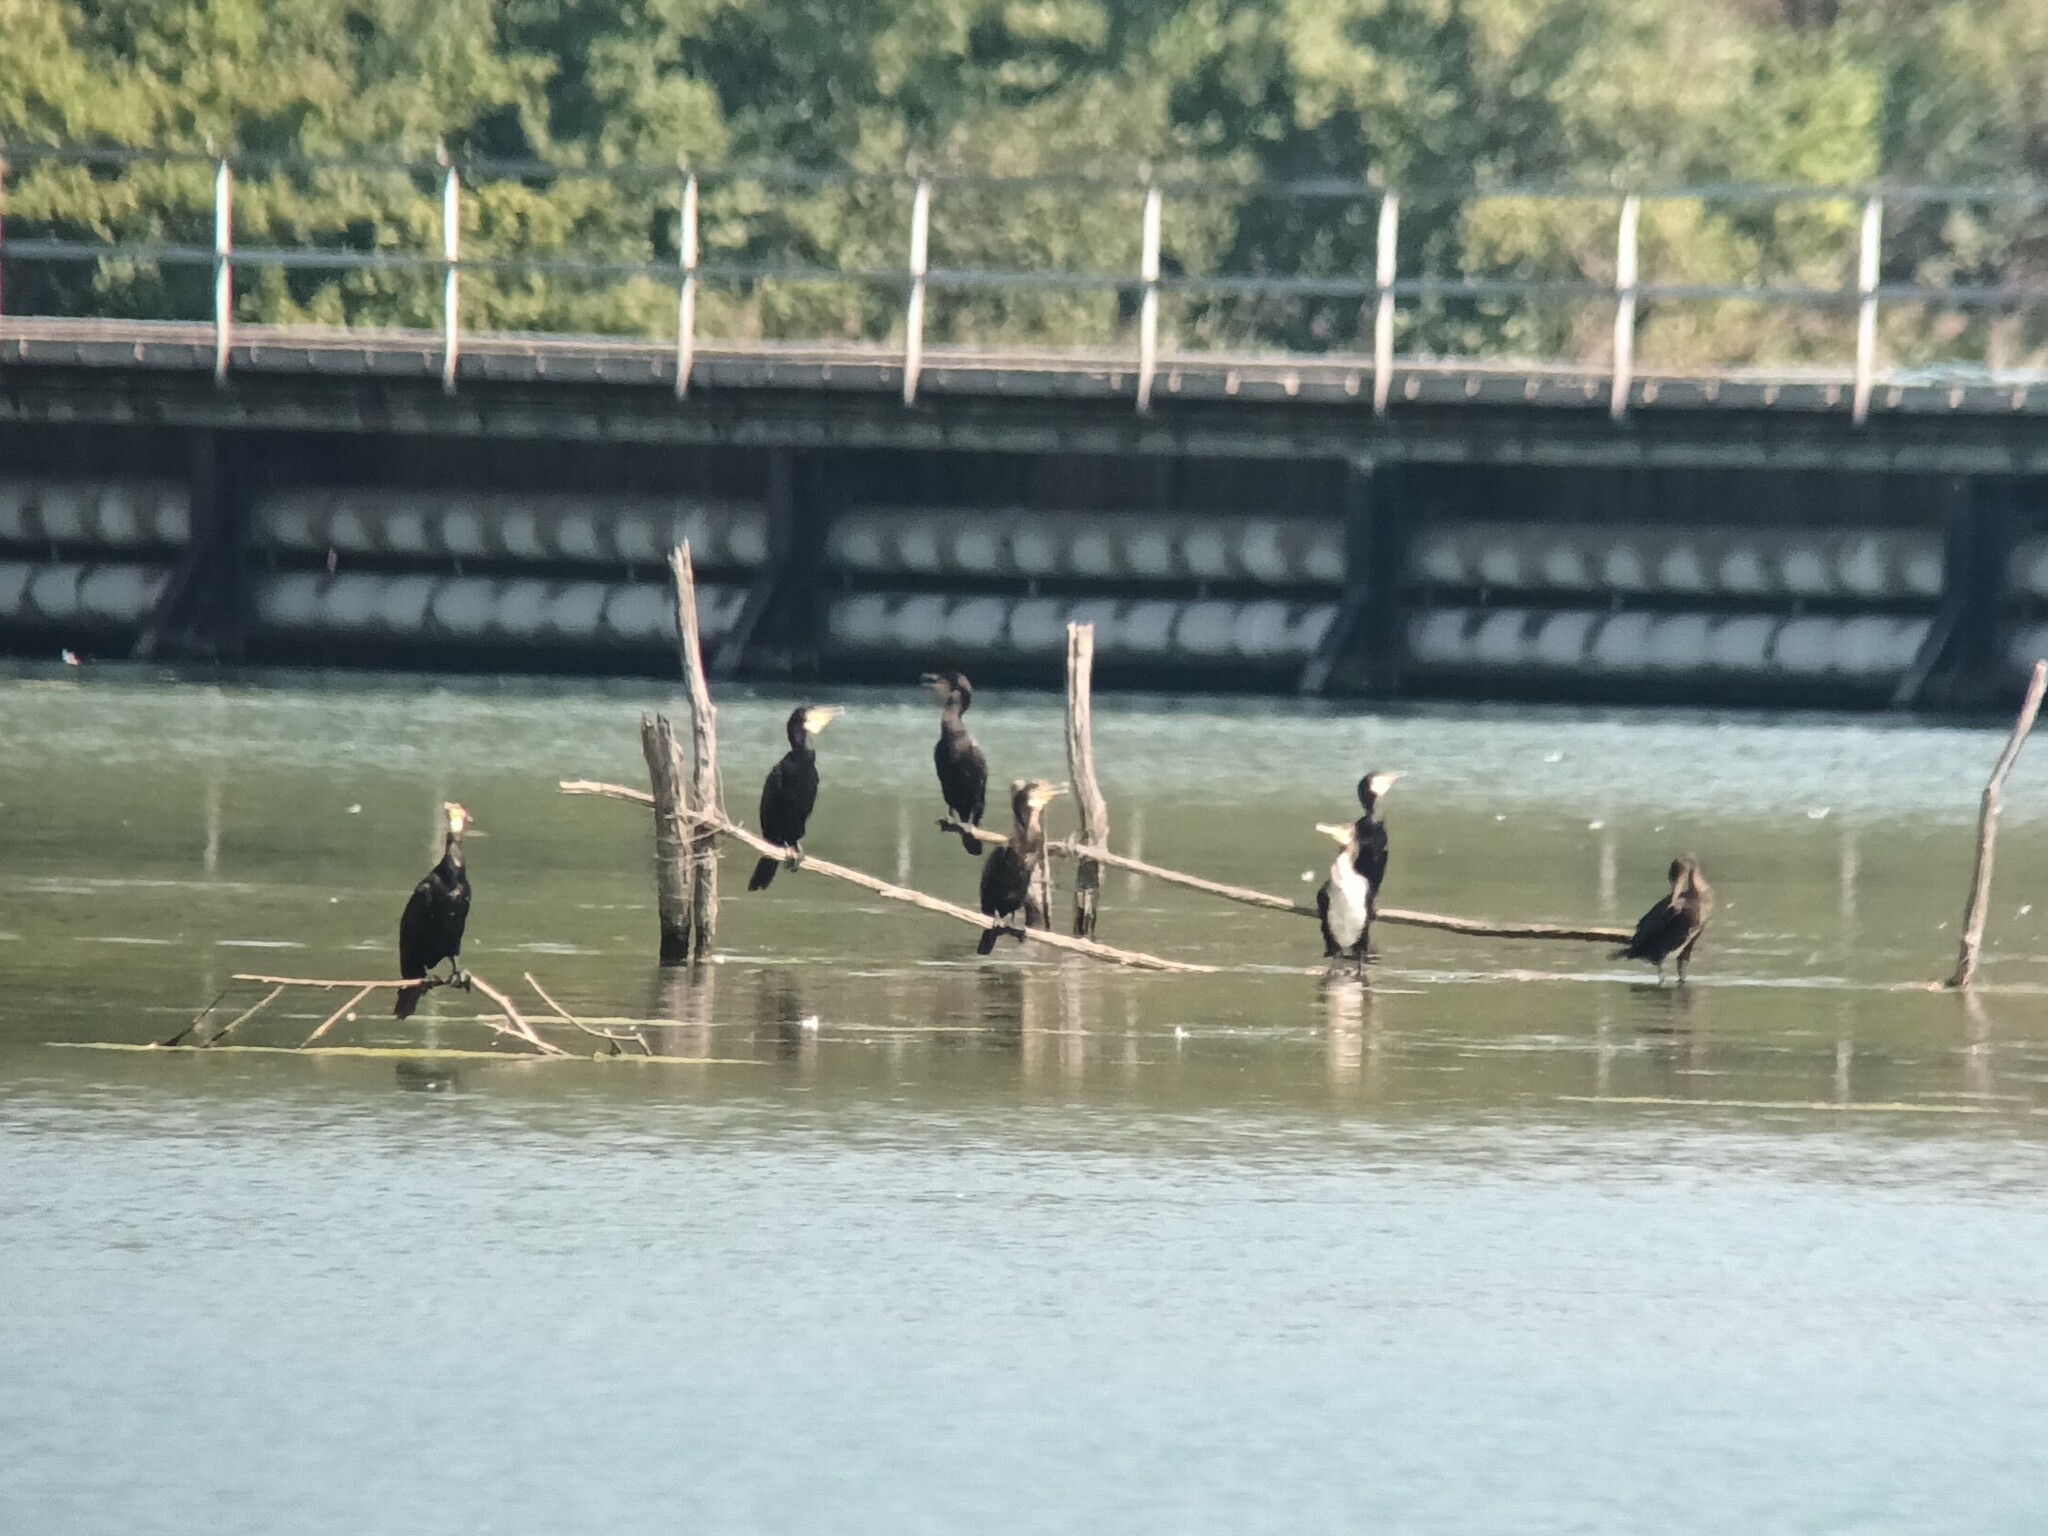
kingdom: Animalia
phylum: Chordata
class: Aves
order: Suliformes
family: Phalacrocoracidae
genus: Phalacrocorax
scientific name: Phalacrocorax carbo
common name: Great cormorant
